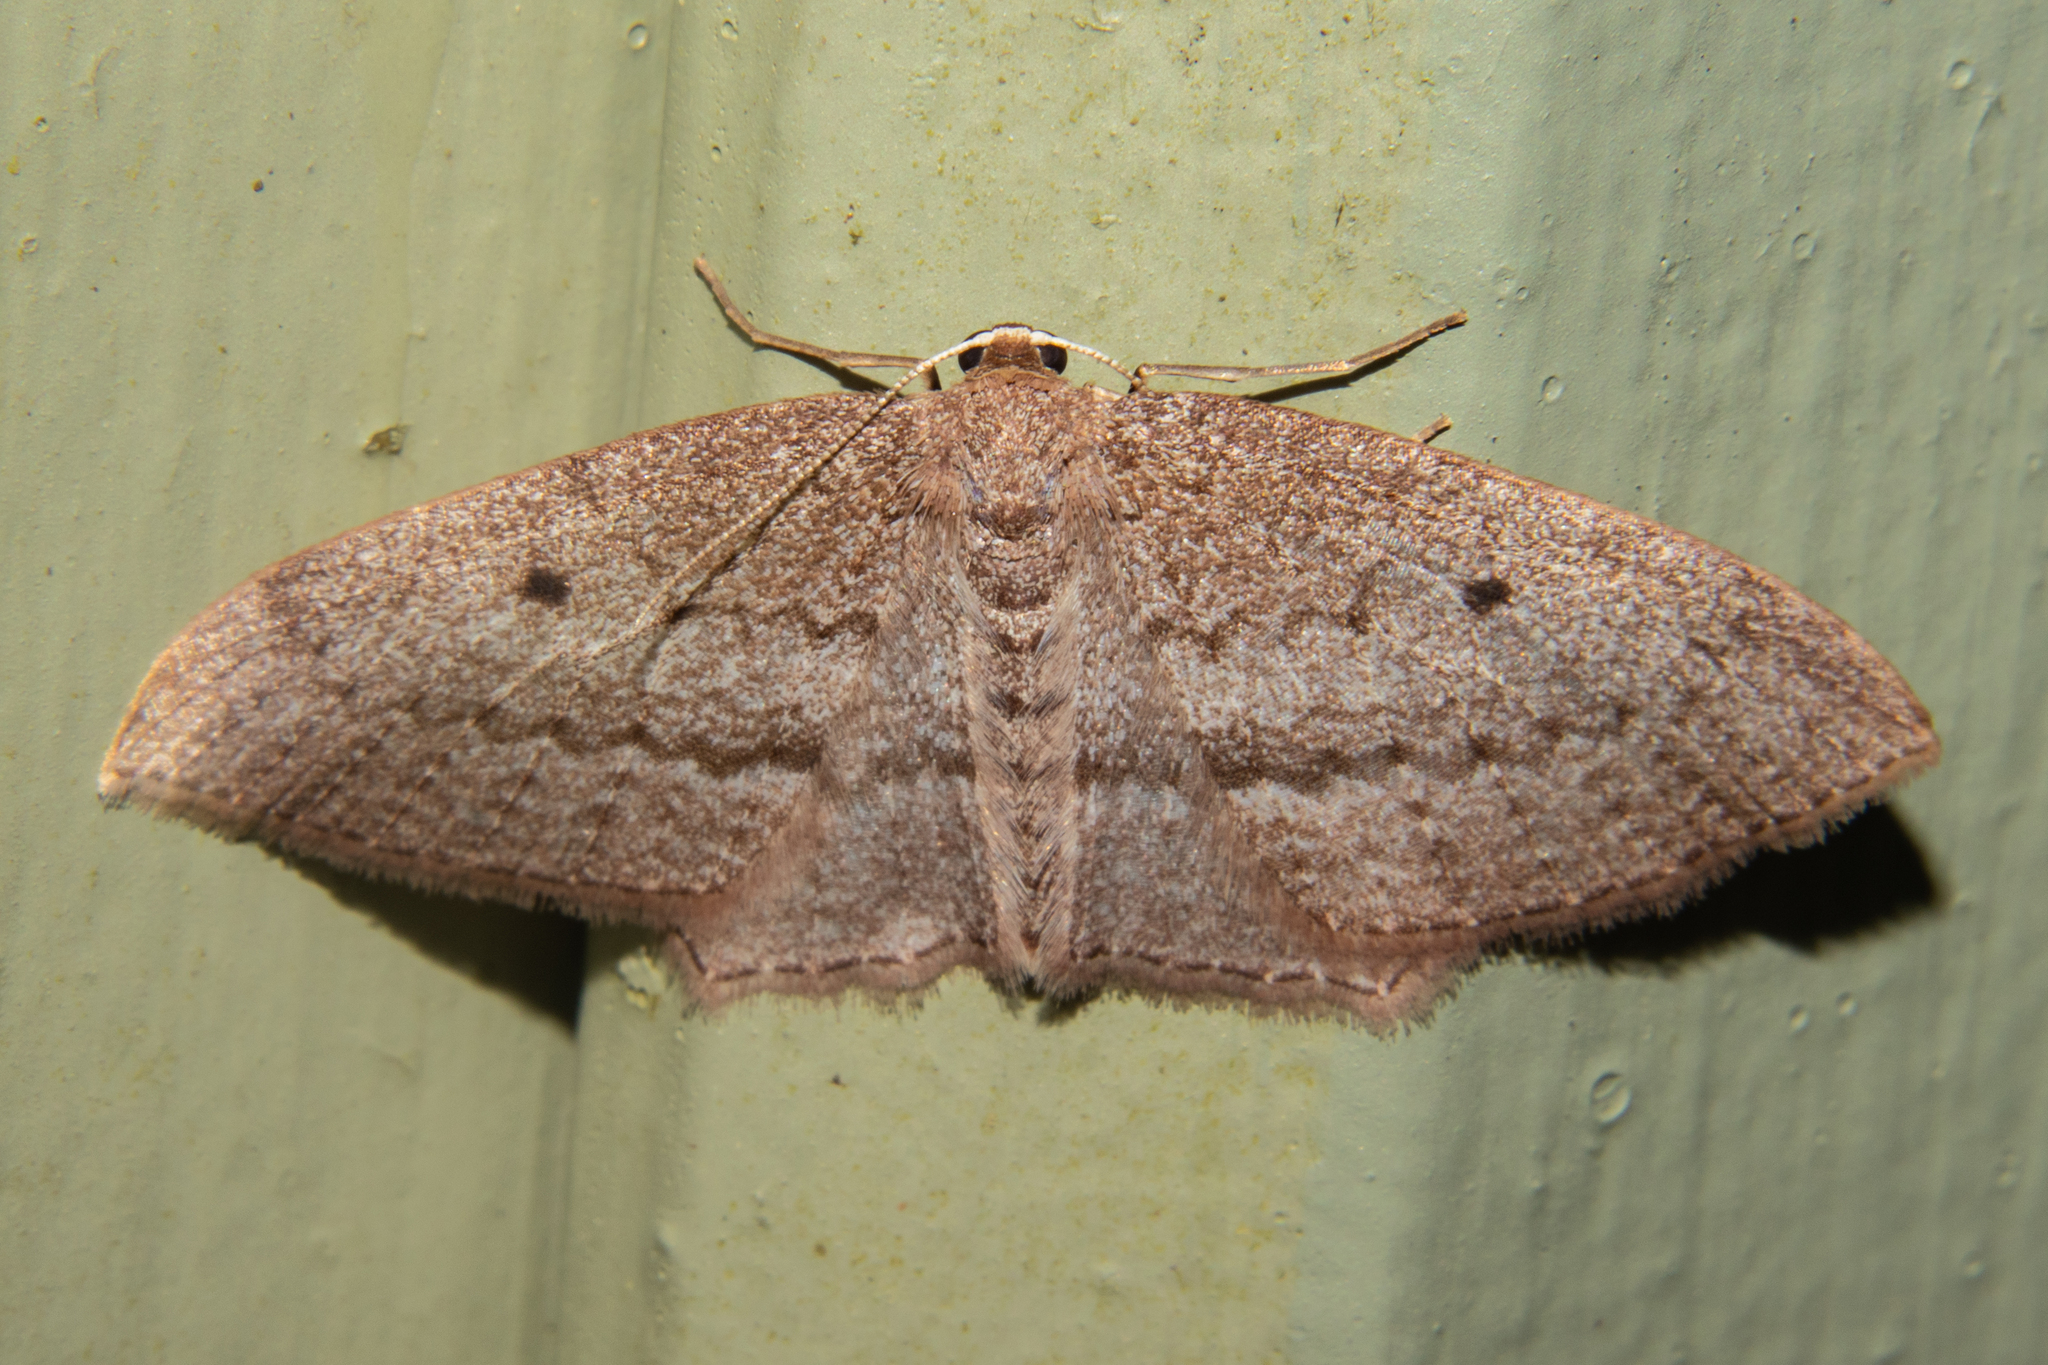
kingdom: Animalia
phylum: Arthropoda
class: Insecta
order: Lepidoptera
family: Geometridae
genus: Poecilasthena
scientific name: Poecilasthena subpurpureata
